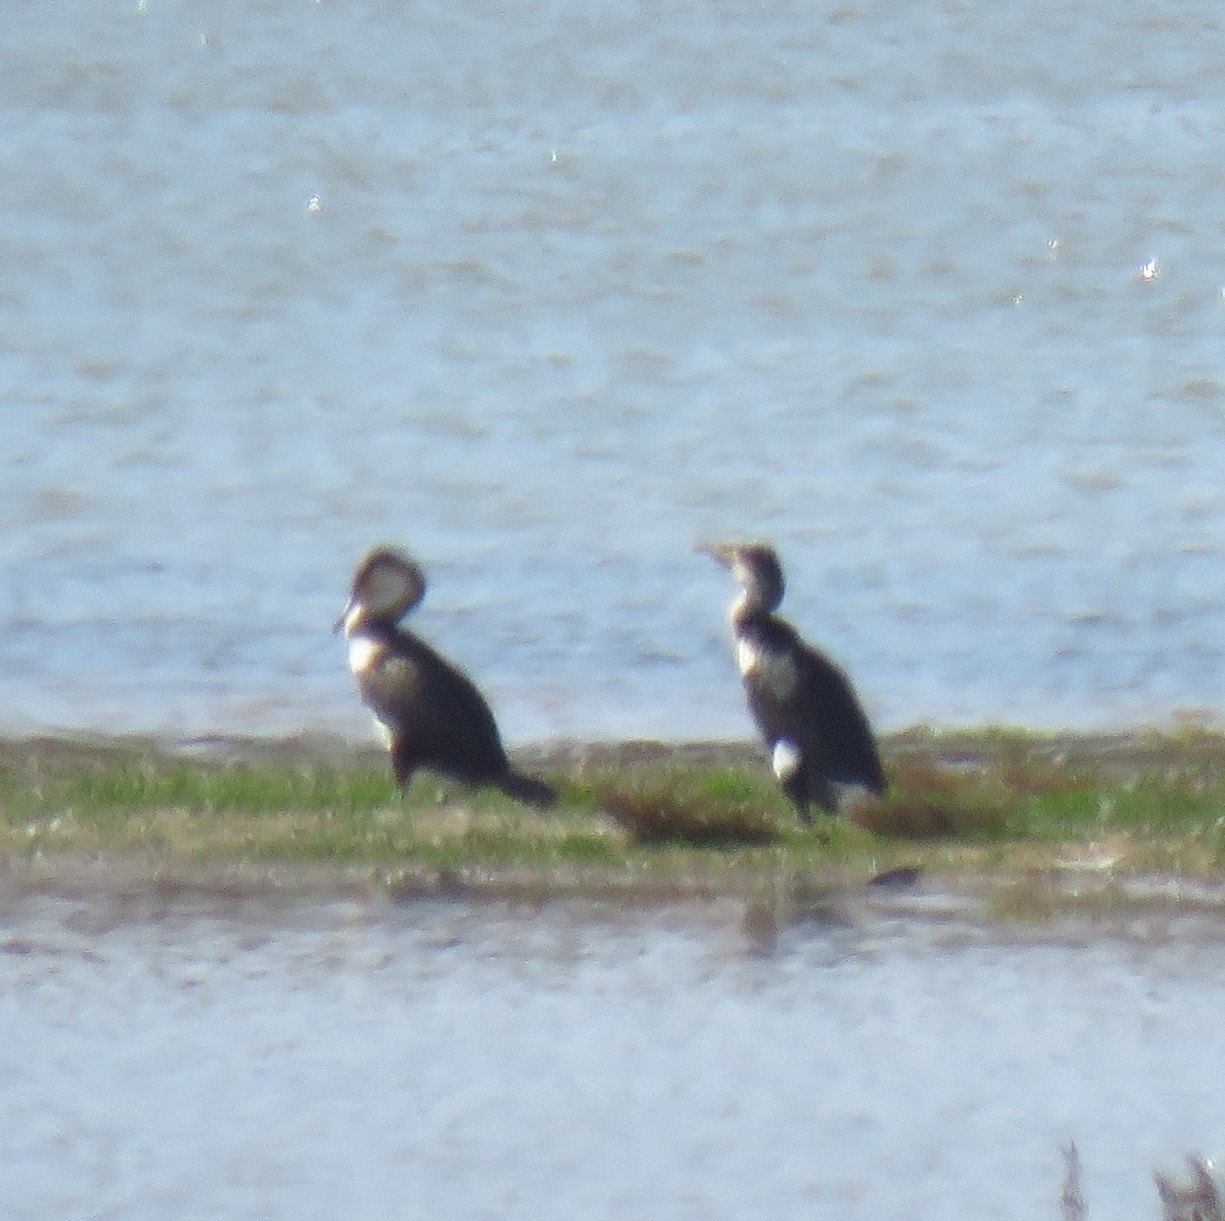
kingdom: Animalia
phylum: Chordata
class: Aves
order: Suliformes
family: Phalacrocoracidae
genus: Phalacrocorax
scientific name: Phalacrocorax carbo
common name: Great cormorant
